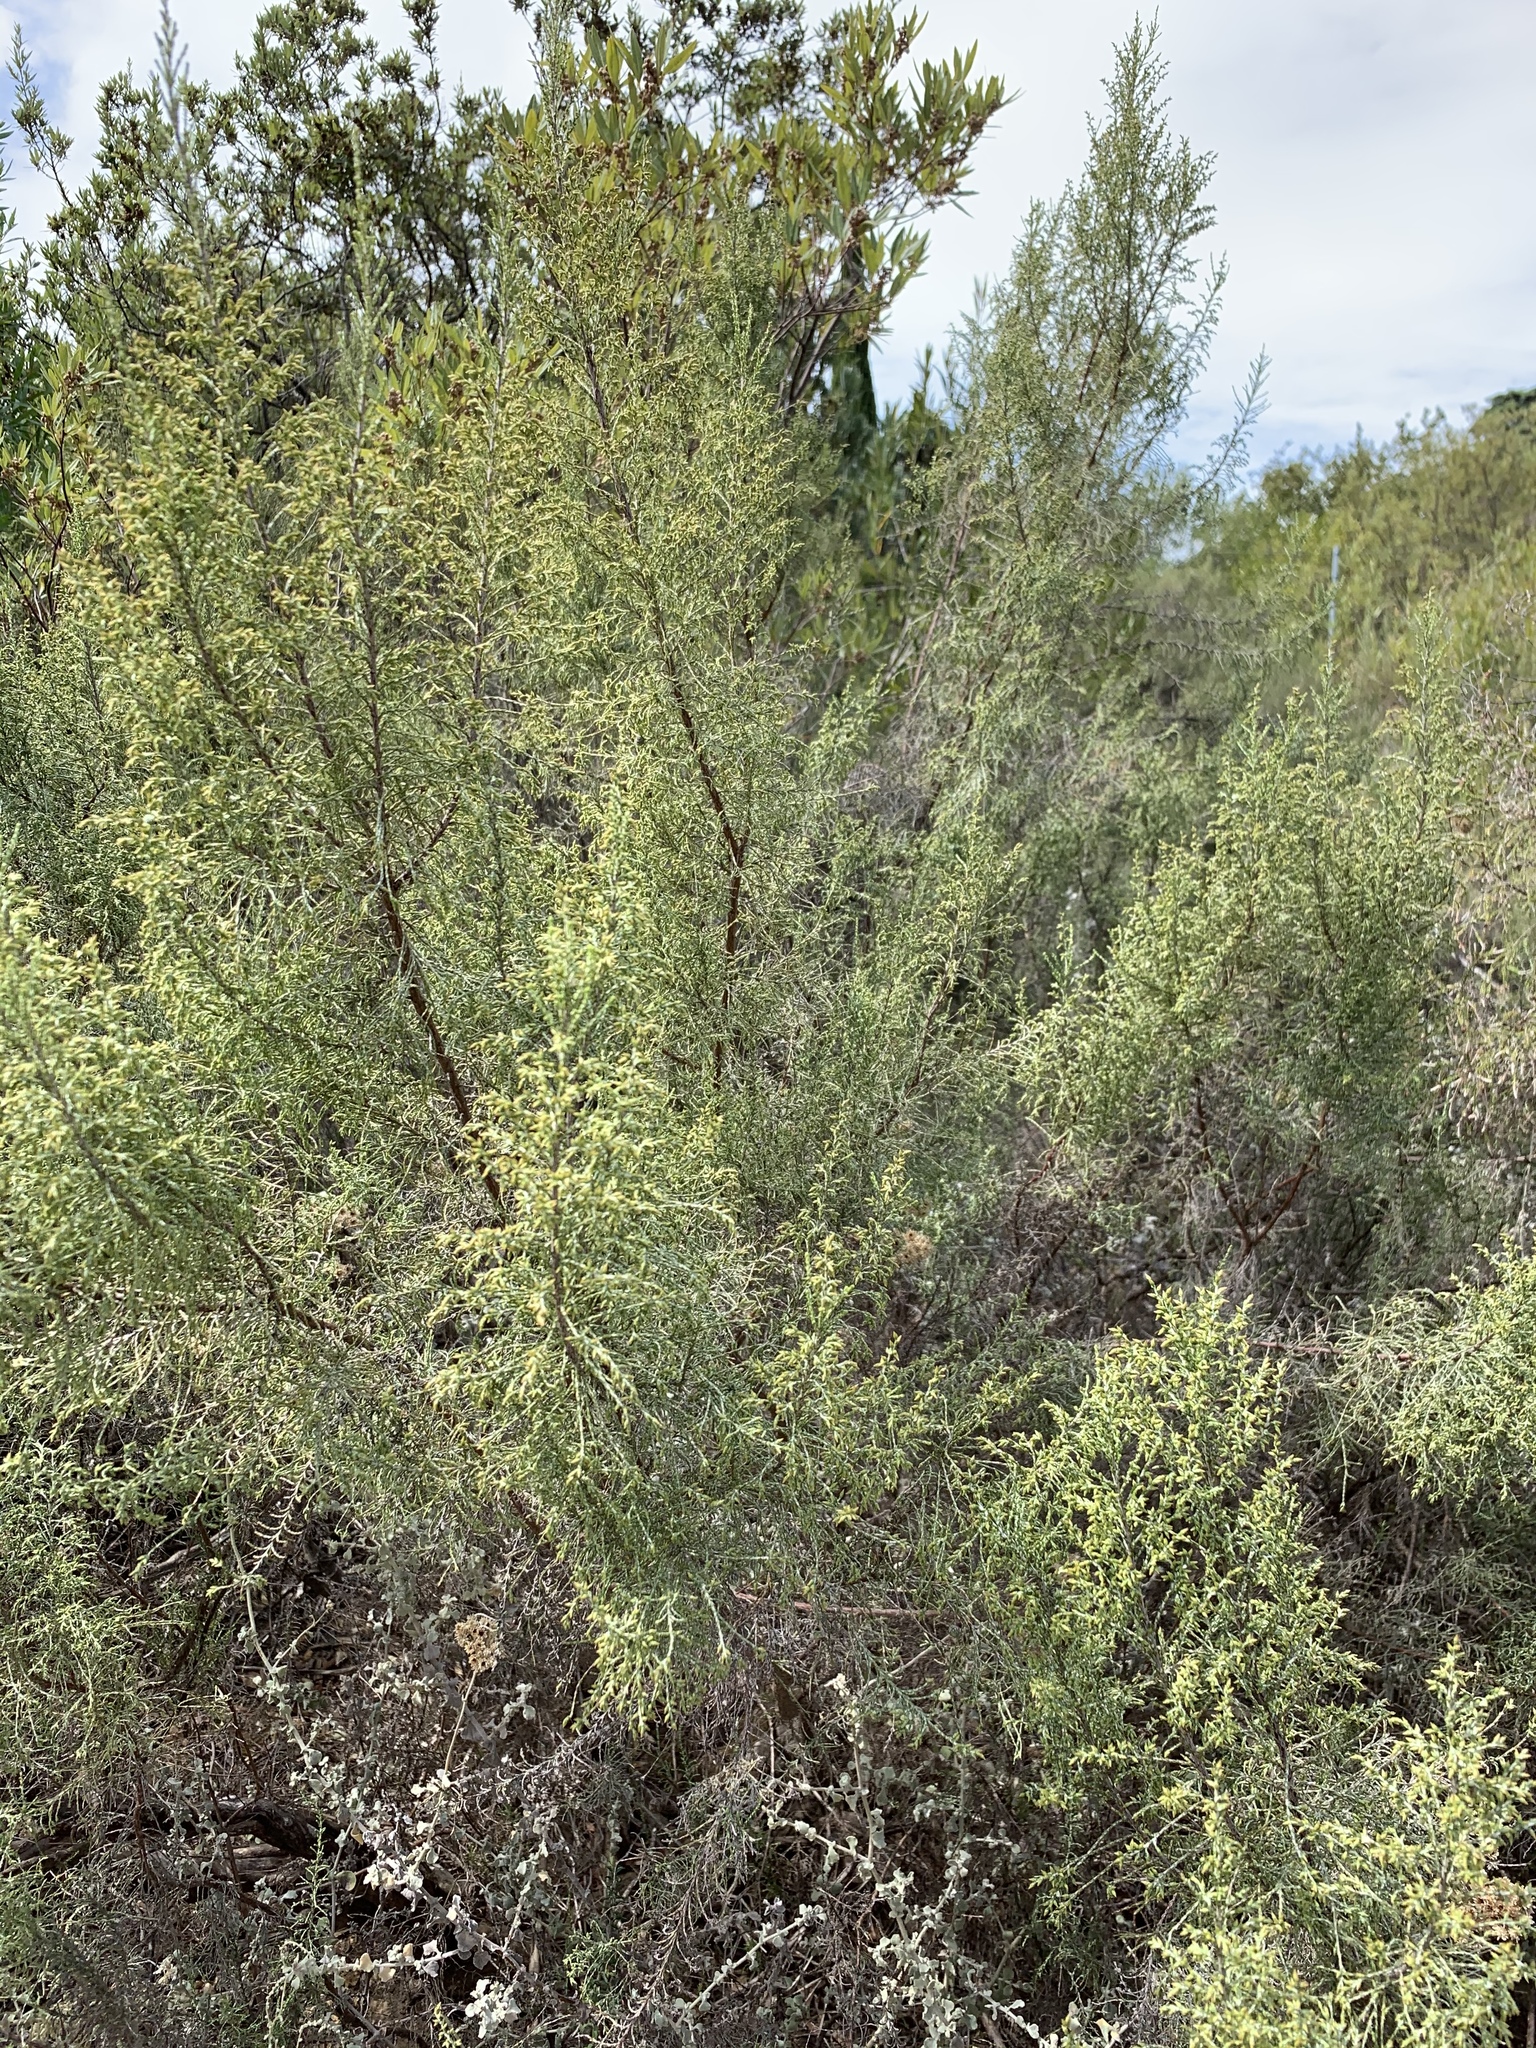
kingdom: Plantae
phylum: Tracheophyta
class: Magnoliopsida
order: Asterales
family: Asteraceae
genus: Dicerothamnus
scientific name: Dicerothamnus rhinocerotis
